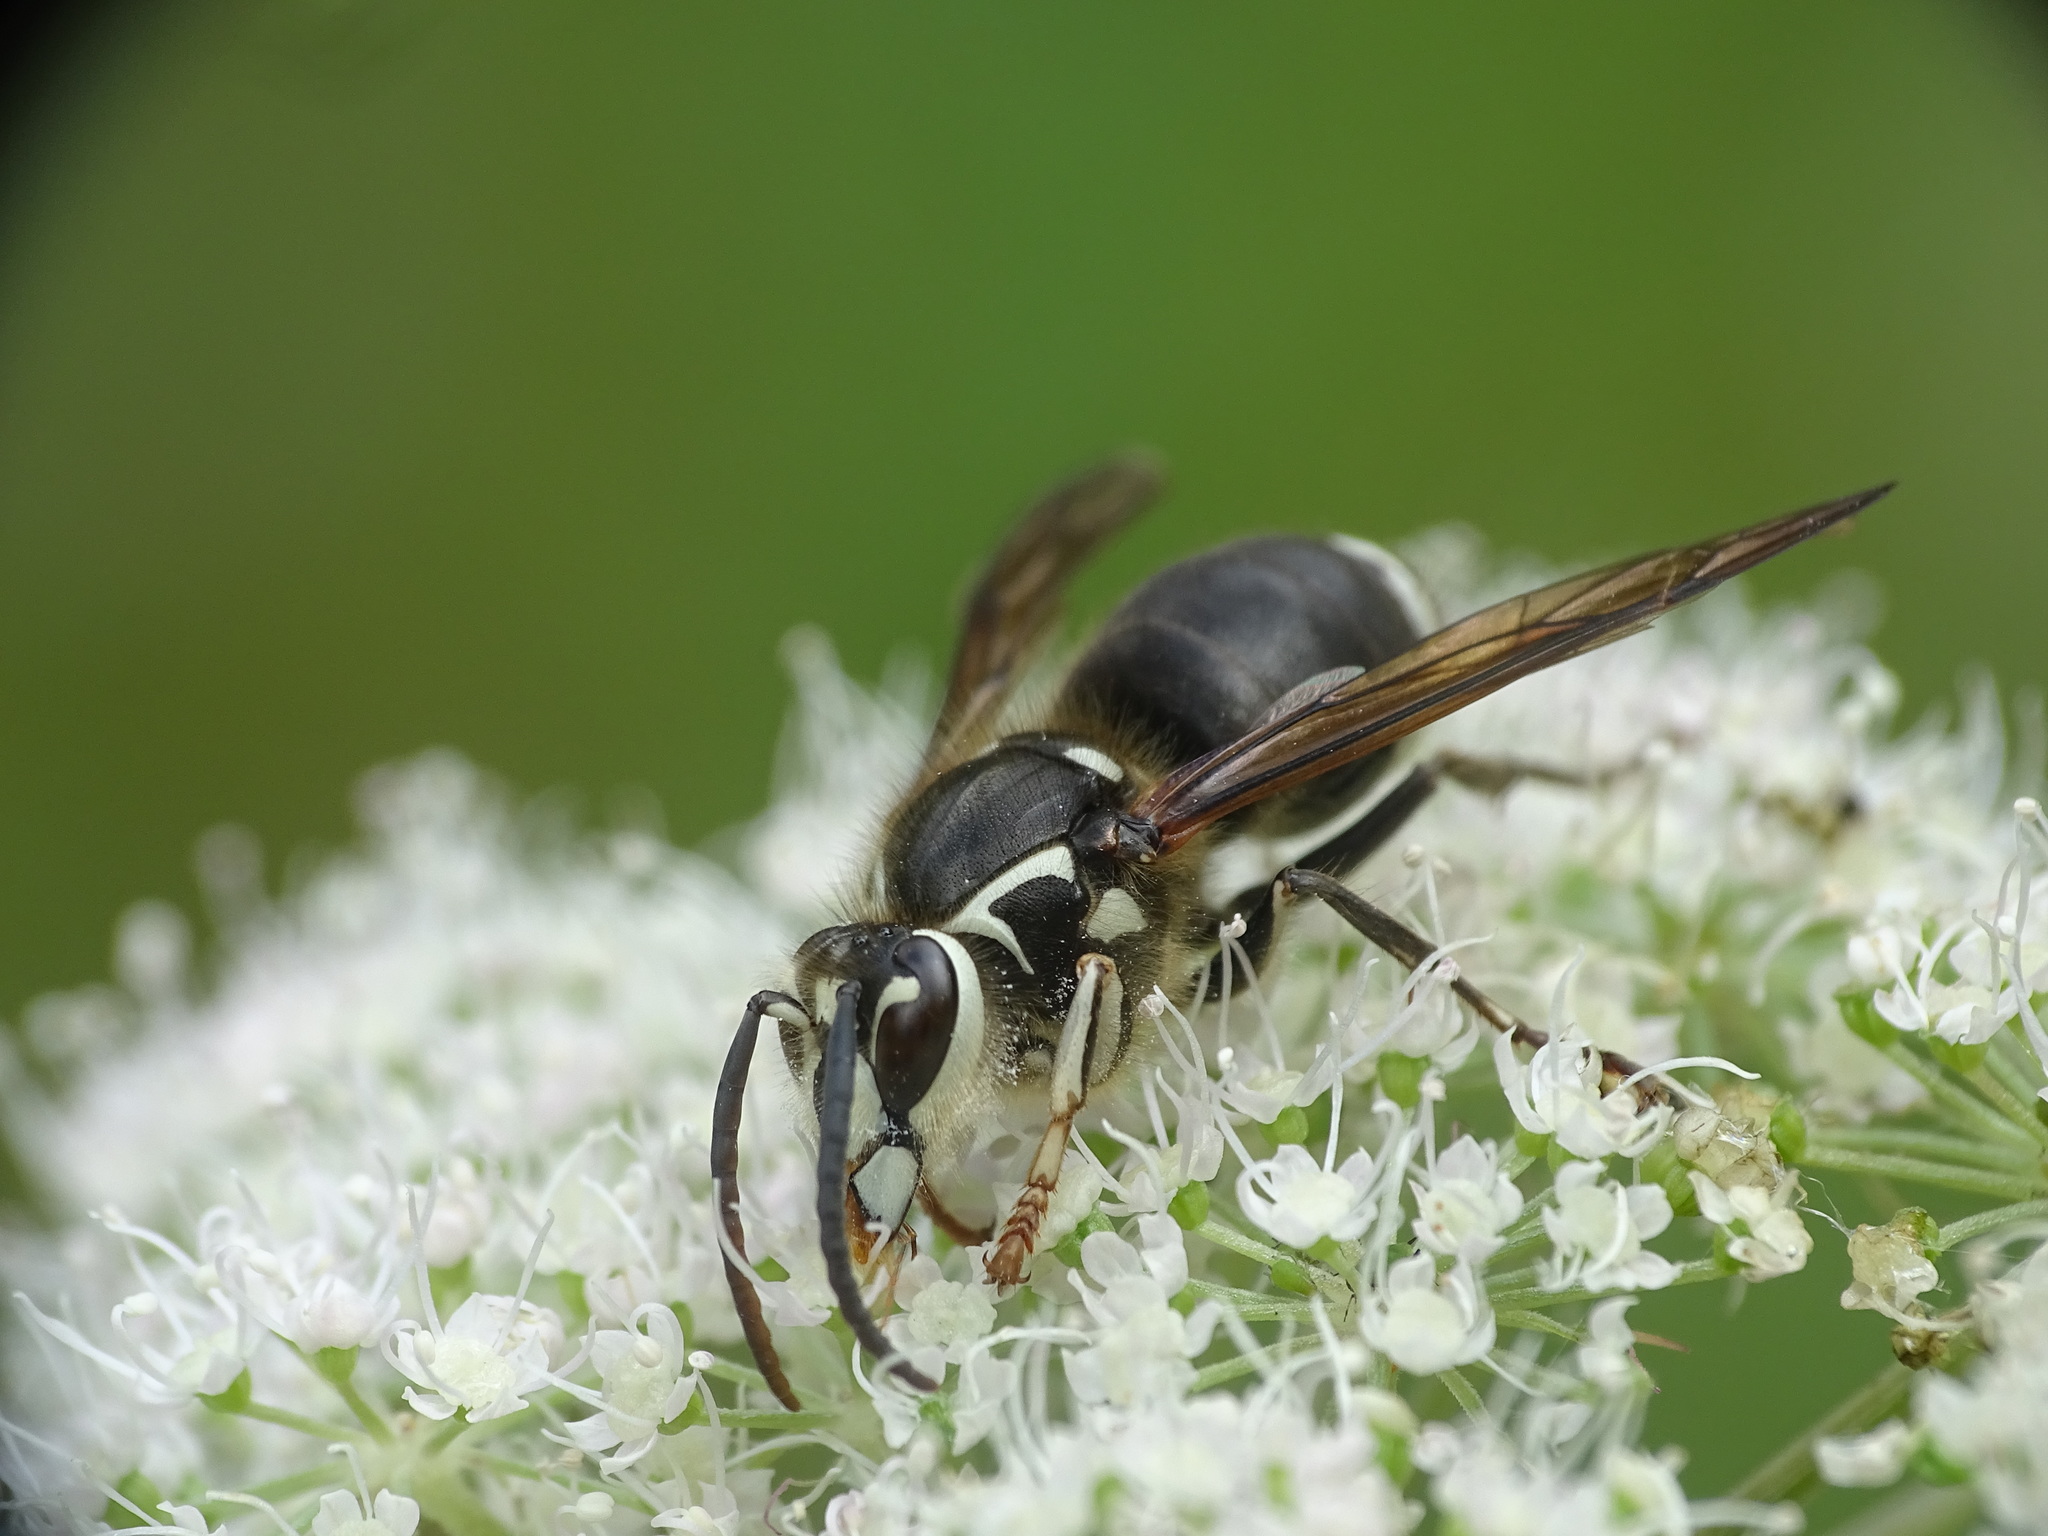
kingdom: Animalia
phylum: Arthropoda
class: Insecta
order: Hymenoptera
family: Vespidae
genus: Dolichovespula
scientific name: Dolichovespula maculata
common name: Bald-faced hornet
